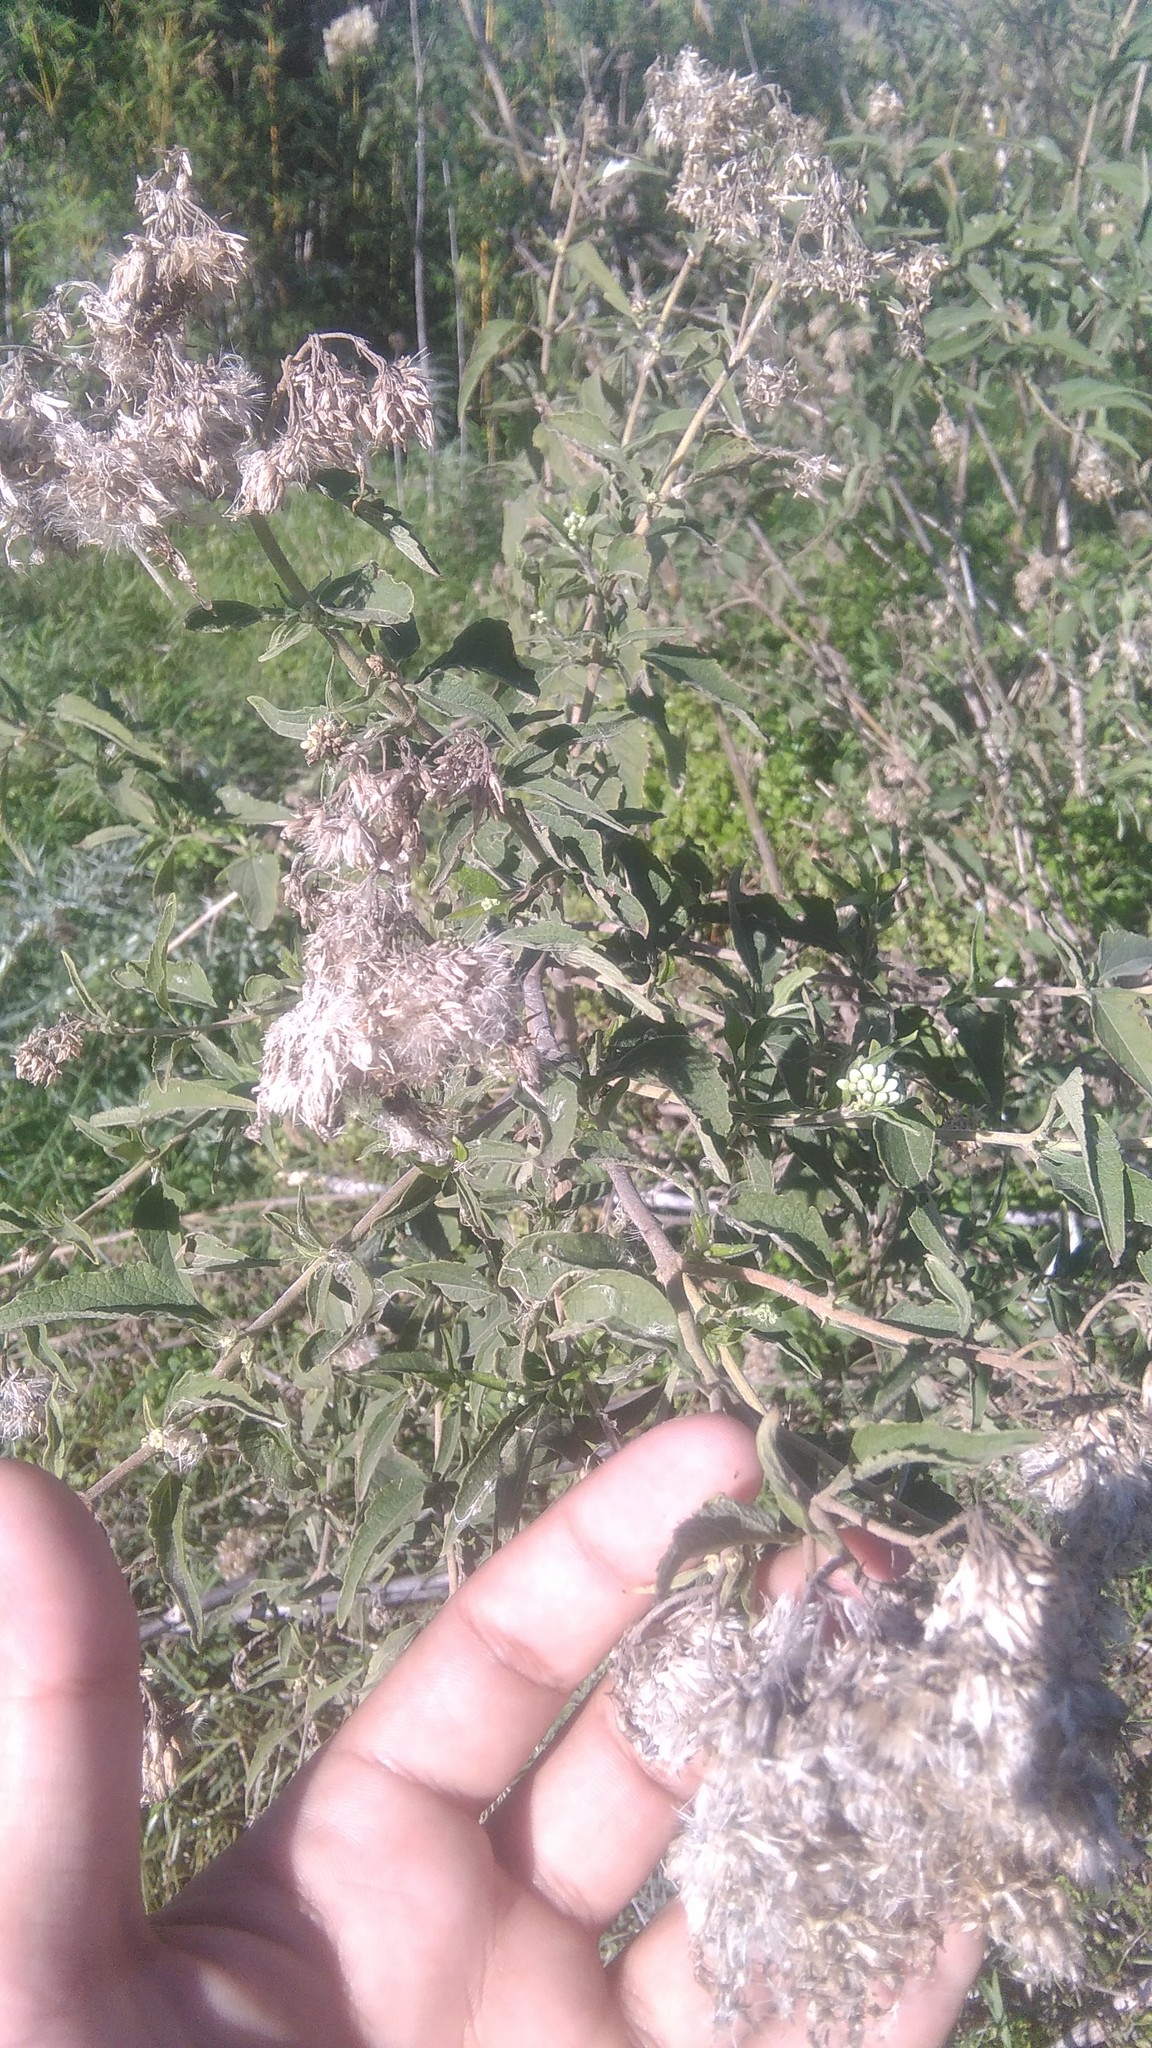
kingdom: Plantae
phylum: Tracheophyta
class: Magnoliopsida
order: Asterales
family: Asteraceae
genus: Austroeupatorium
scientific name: Austroeupatorium inulifolium
